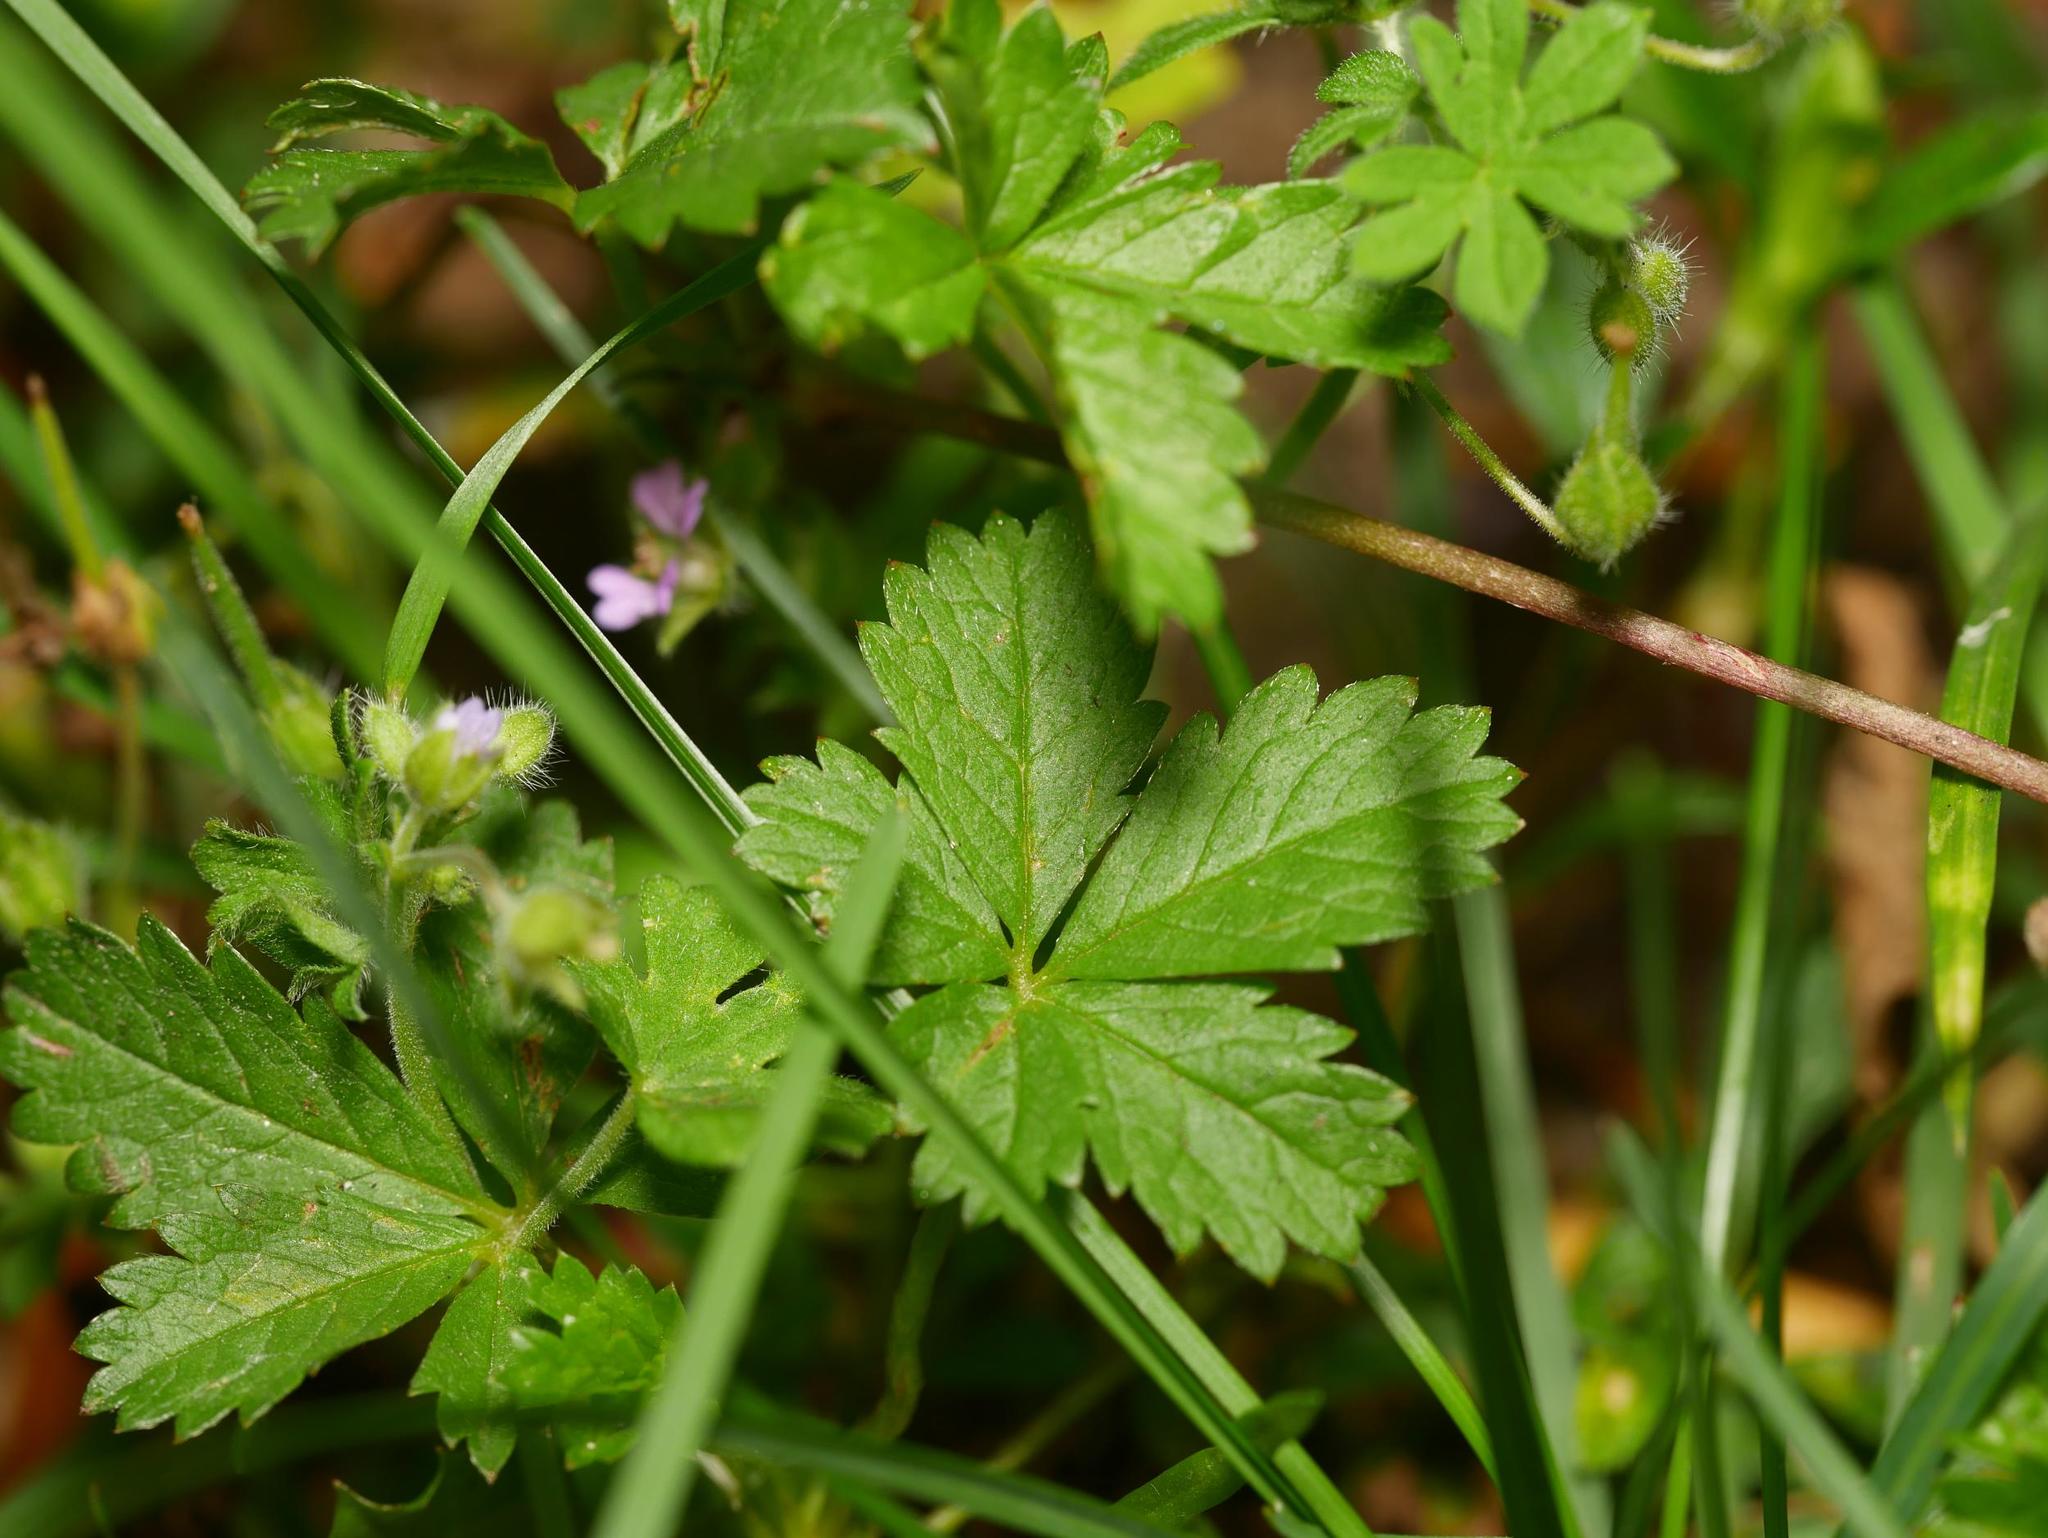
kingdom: Plantae
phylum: Tracheophyta
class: Magnoliopsida
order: Rosales
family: Rosaceae
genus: Potentilla
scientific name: Potentilla reptans
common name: Creeping cinquefoil
